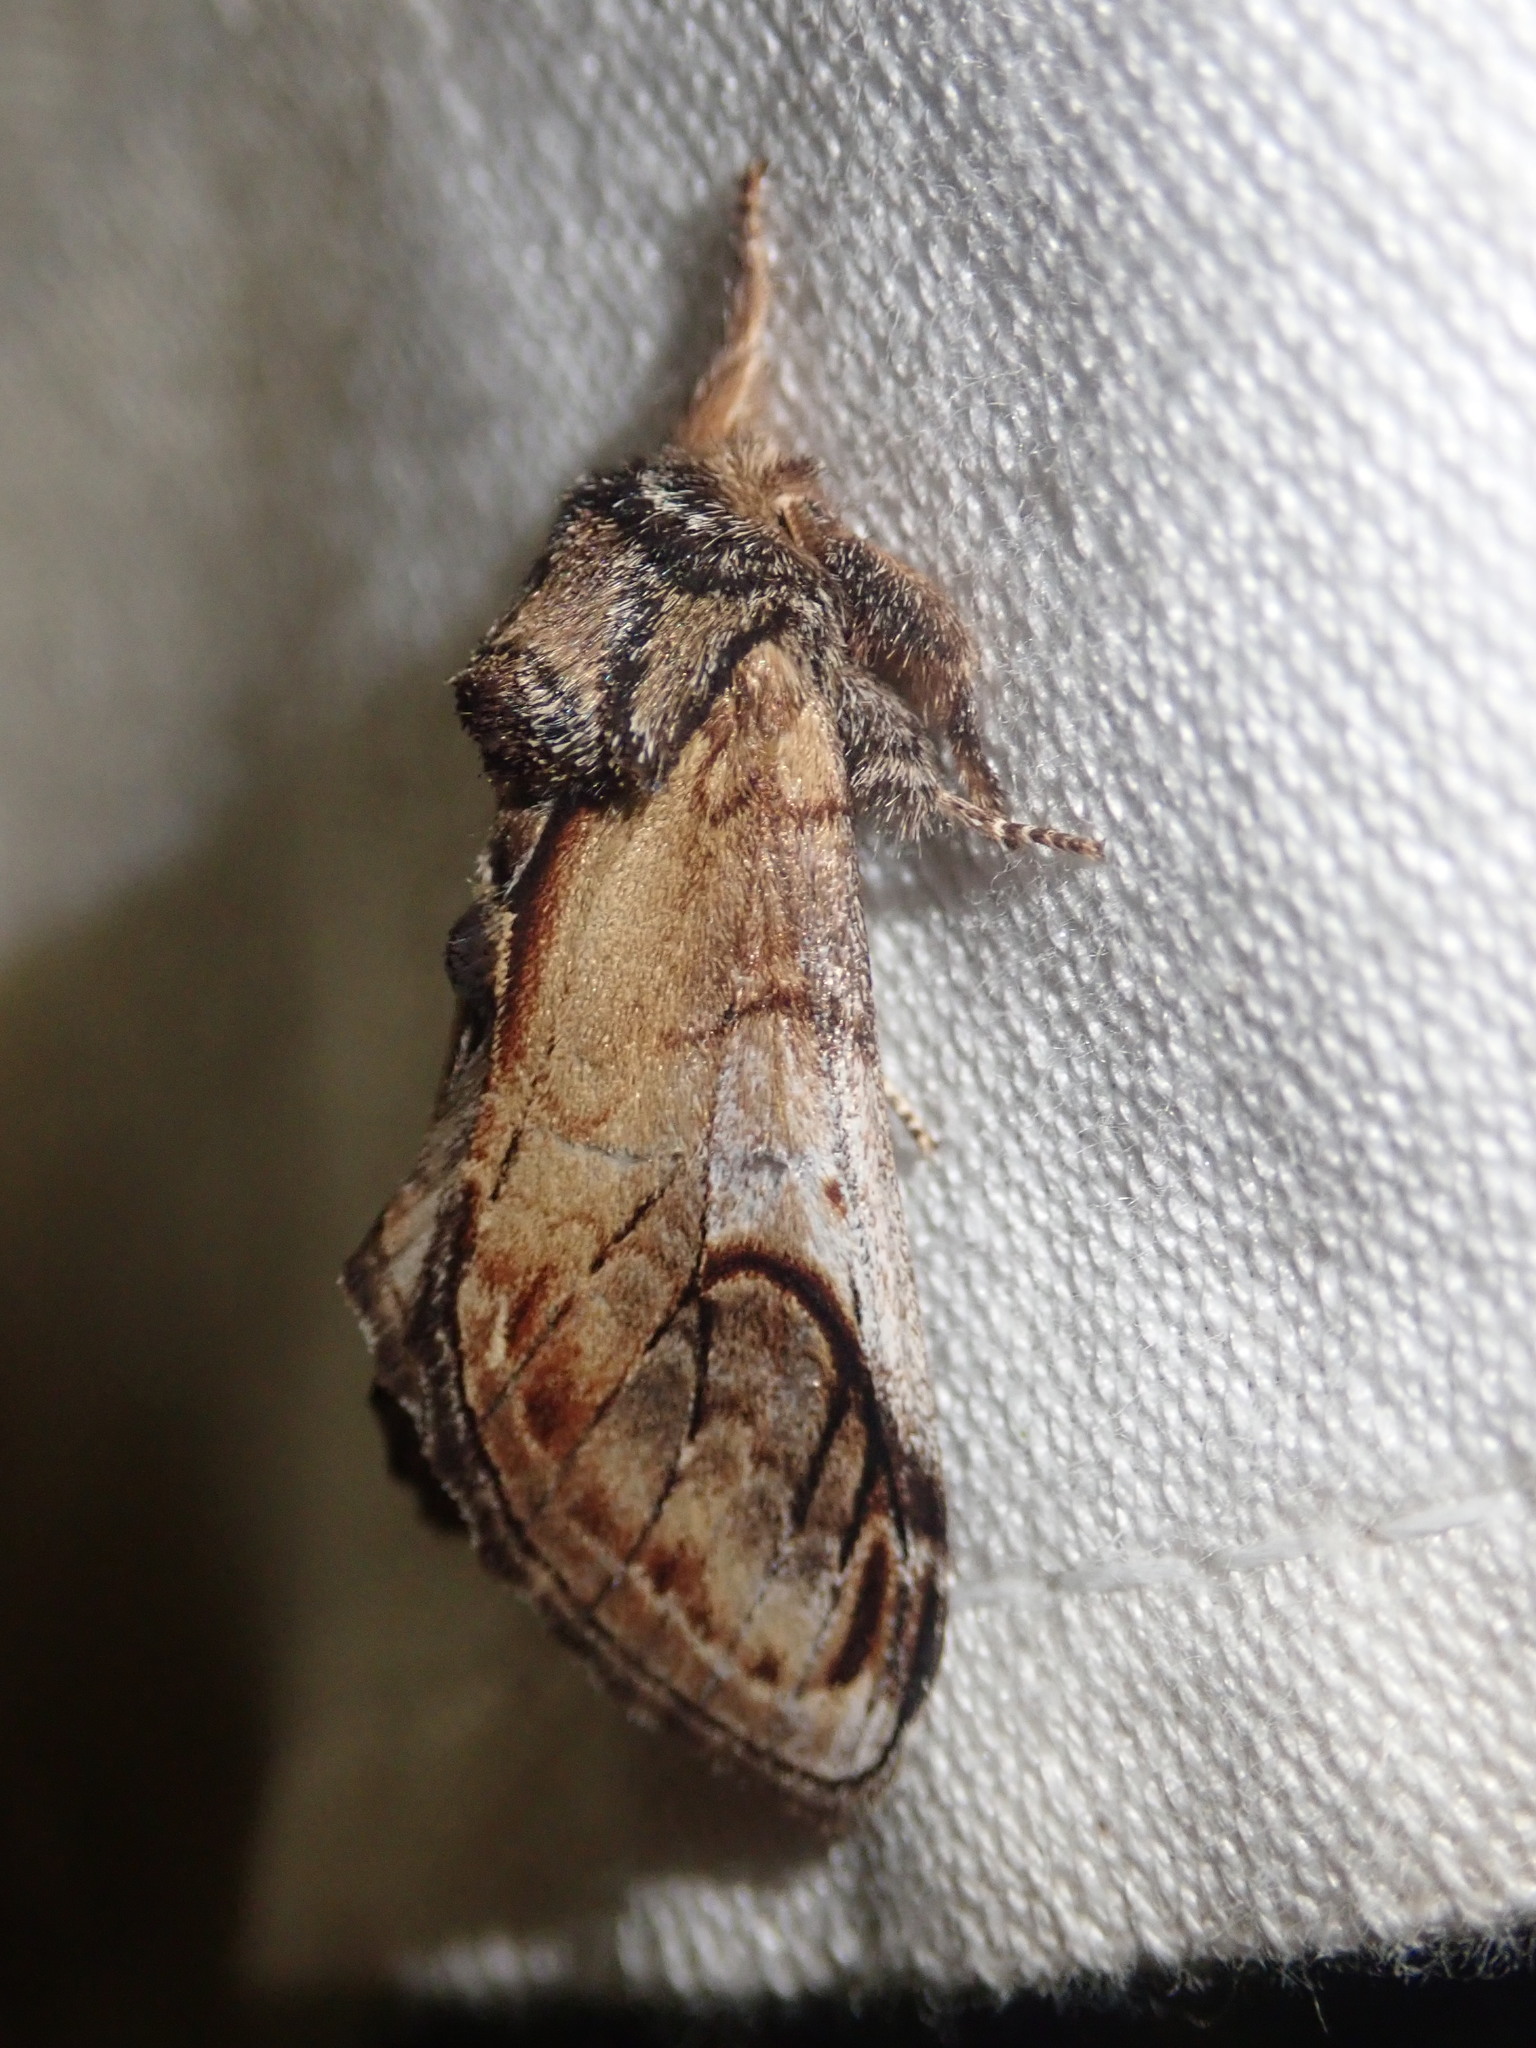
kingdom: Animalia
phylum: Arthropoda
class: Insecta
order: Lepidoptera
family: Notodontidae
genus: Notodonta
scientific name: Notodonta ziczac
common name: Pebble prominent
